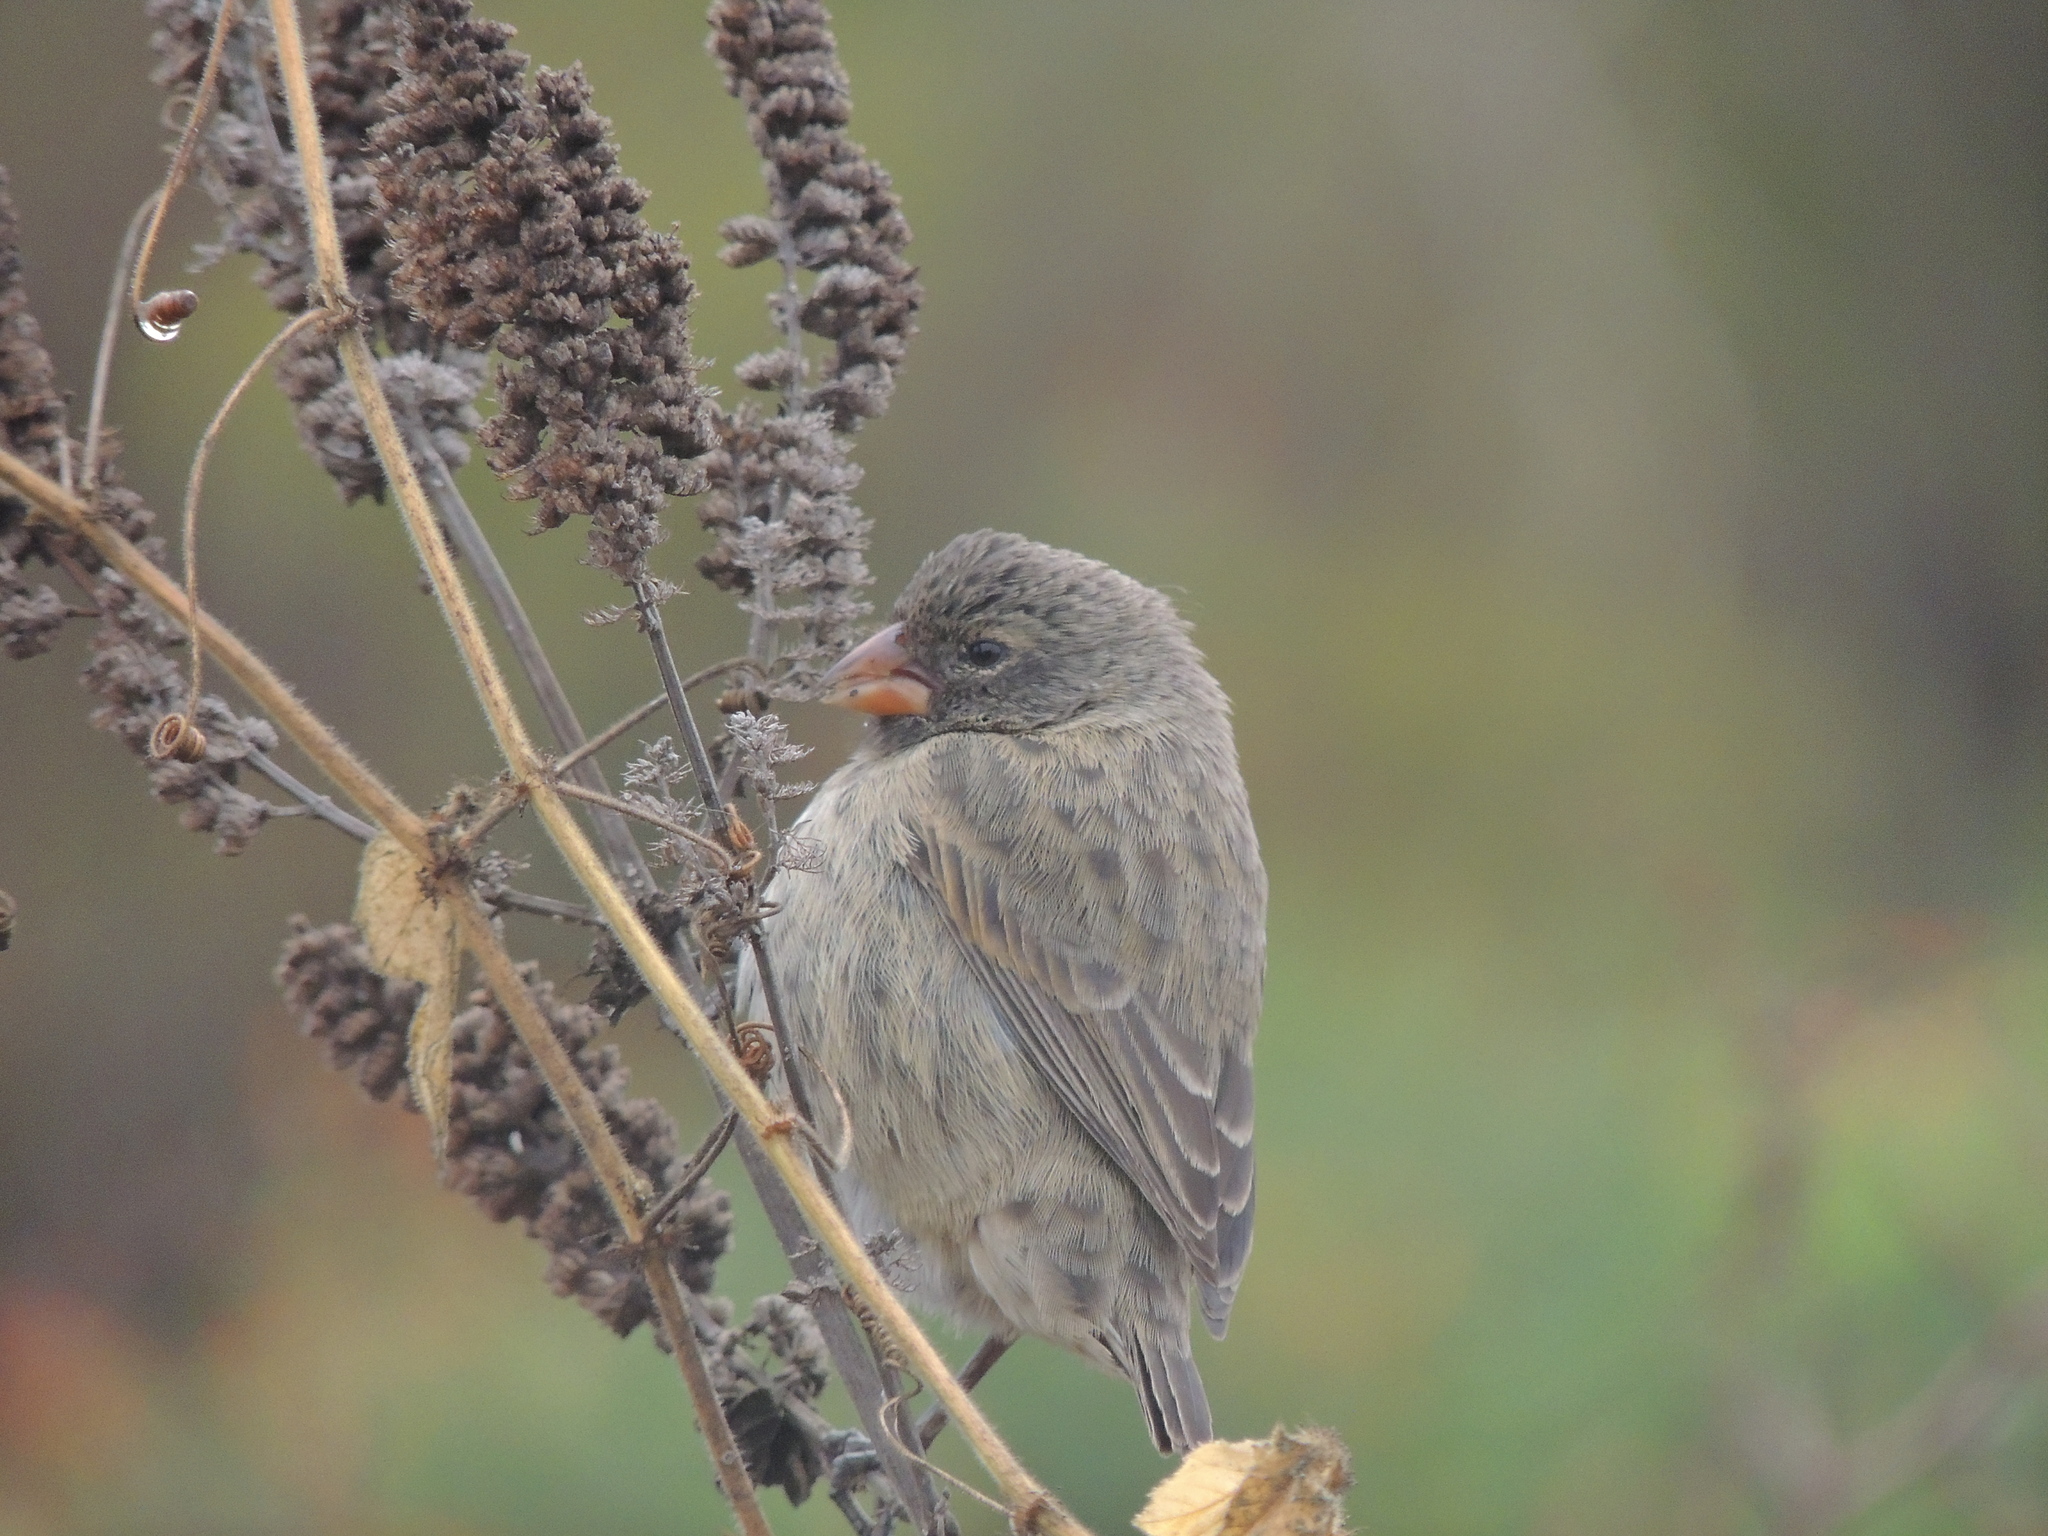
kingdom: Animalia
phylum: Chordata
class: Aves
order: Passeriformes
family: Thraupidae
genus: Geospiza
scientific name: Geospiza fuliginosa
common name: Small ground finch
